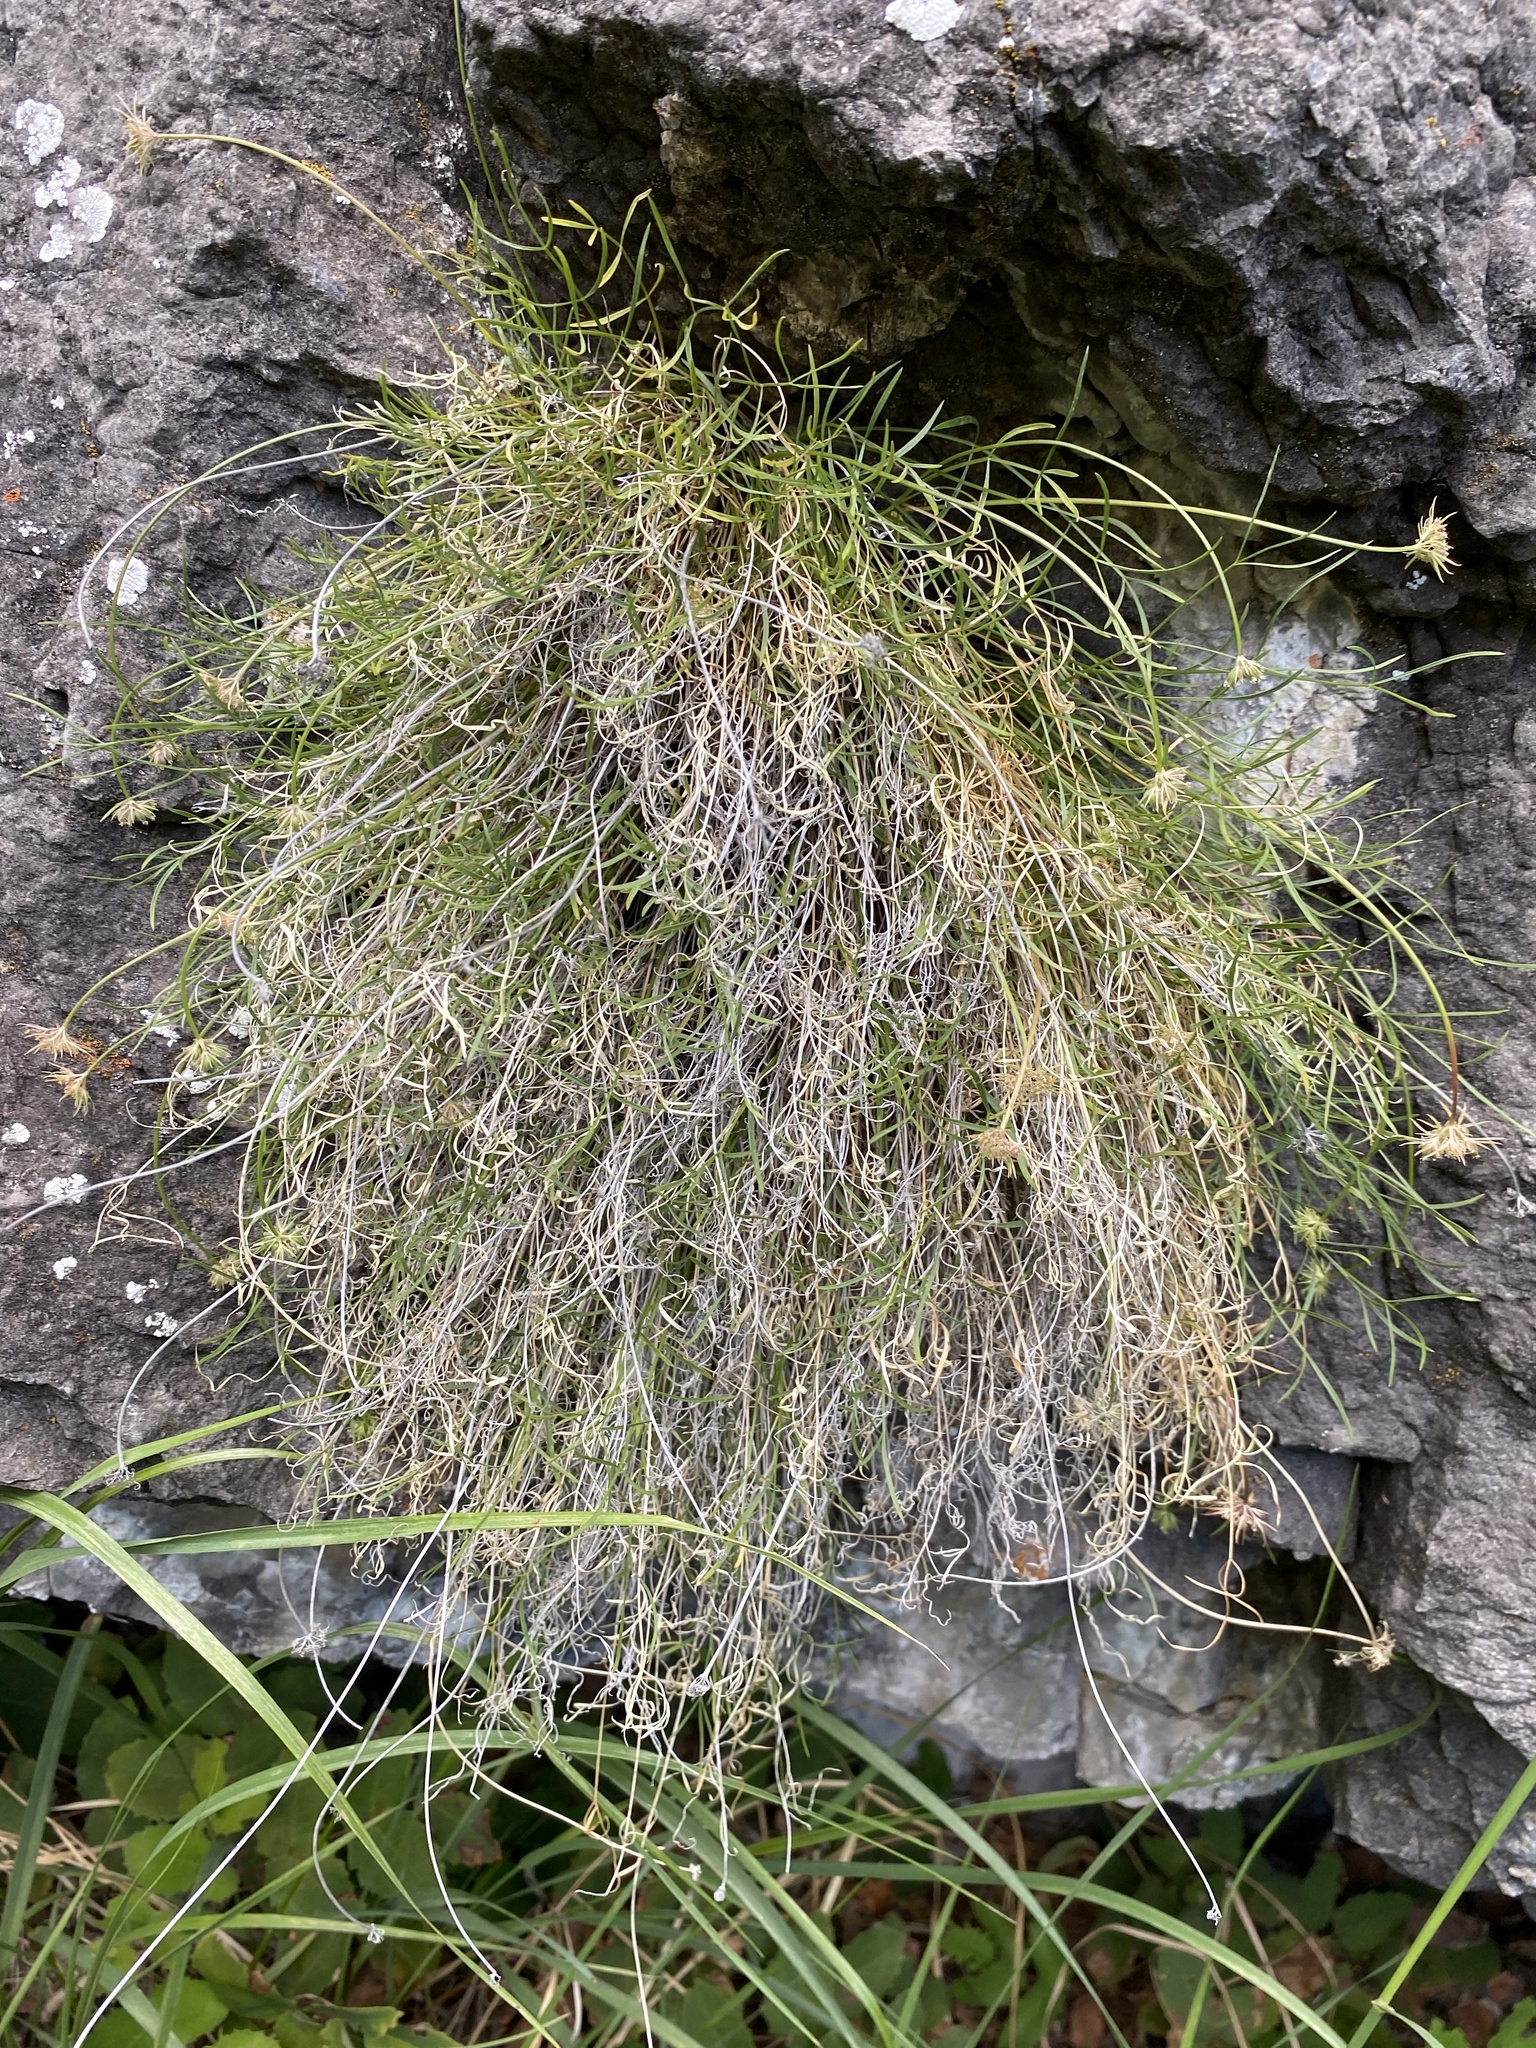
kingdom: Plantae
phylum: Tracheophyta
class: Magnoliopsida
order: Apiales
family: Apiaceae
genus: Musineon
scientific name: Musineon lineare
